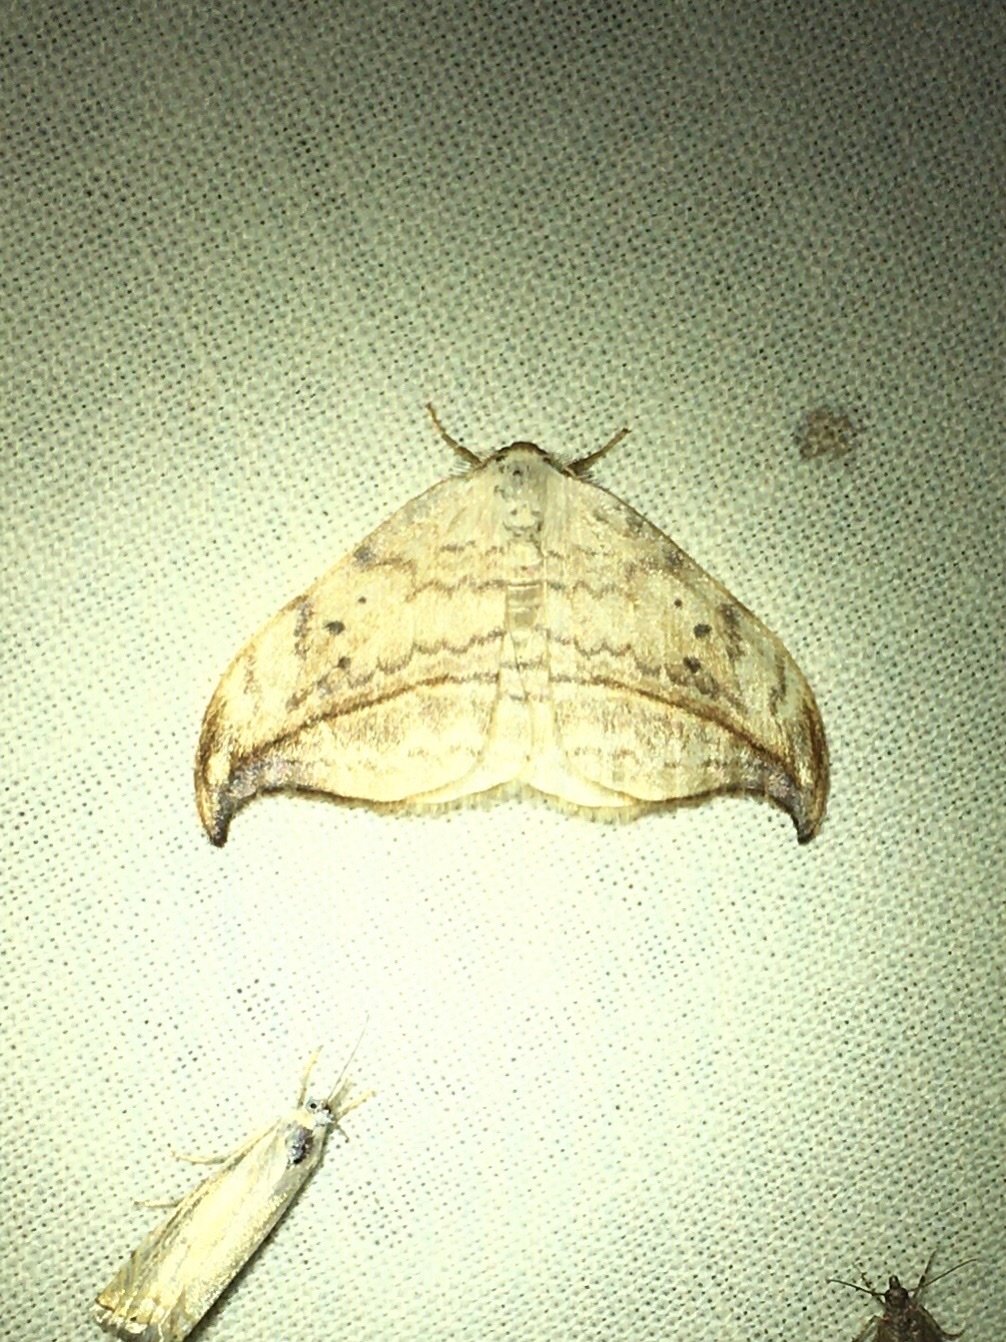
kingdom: Animalia
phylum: Arthropoda
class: Insecta
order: Lepidoptera
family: Drepanidae
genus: Drepana
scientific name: Drepana arcuata
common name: Arched hooktip moth
